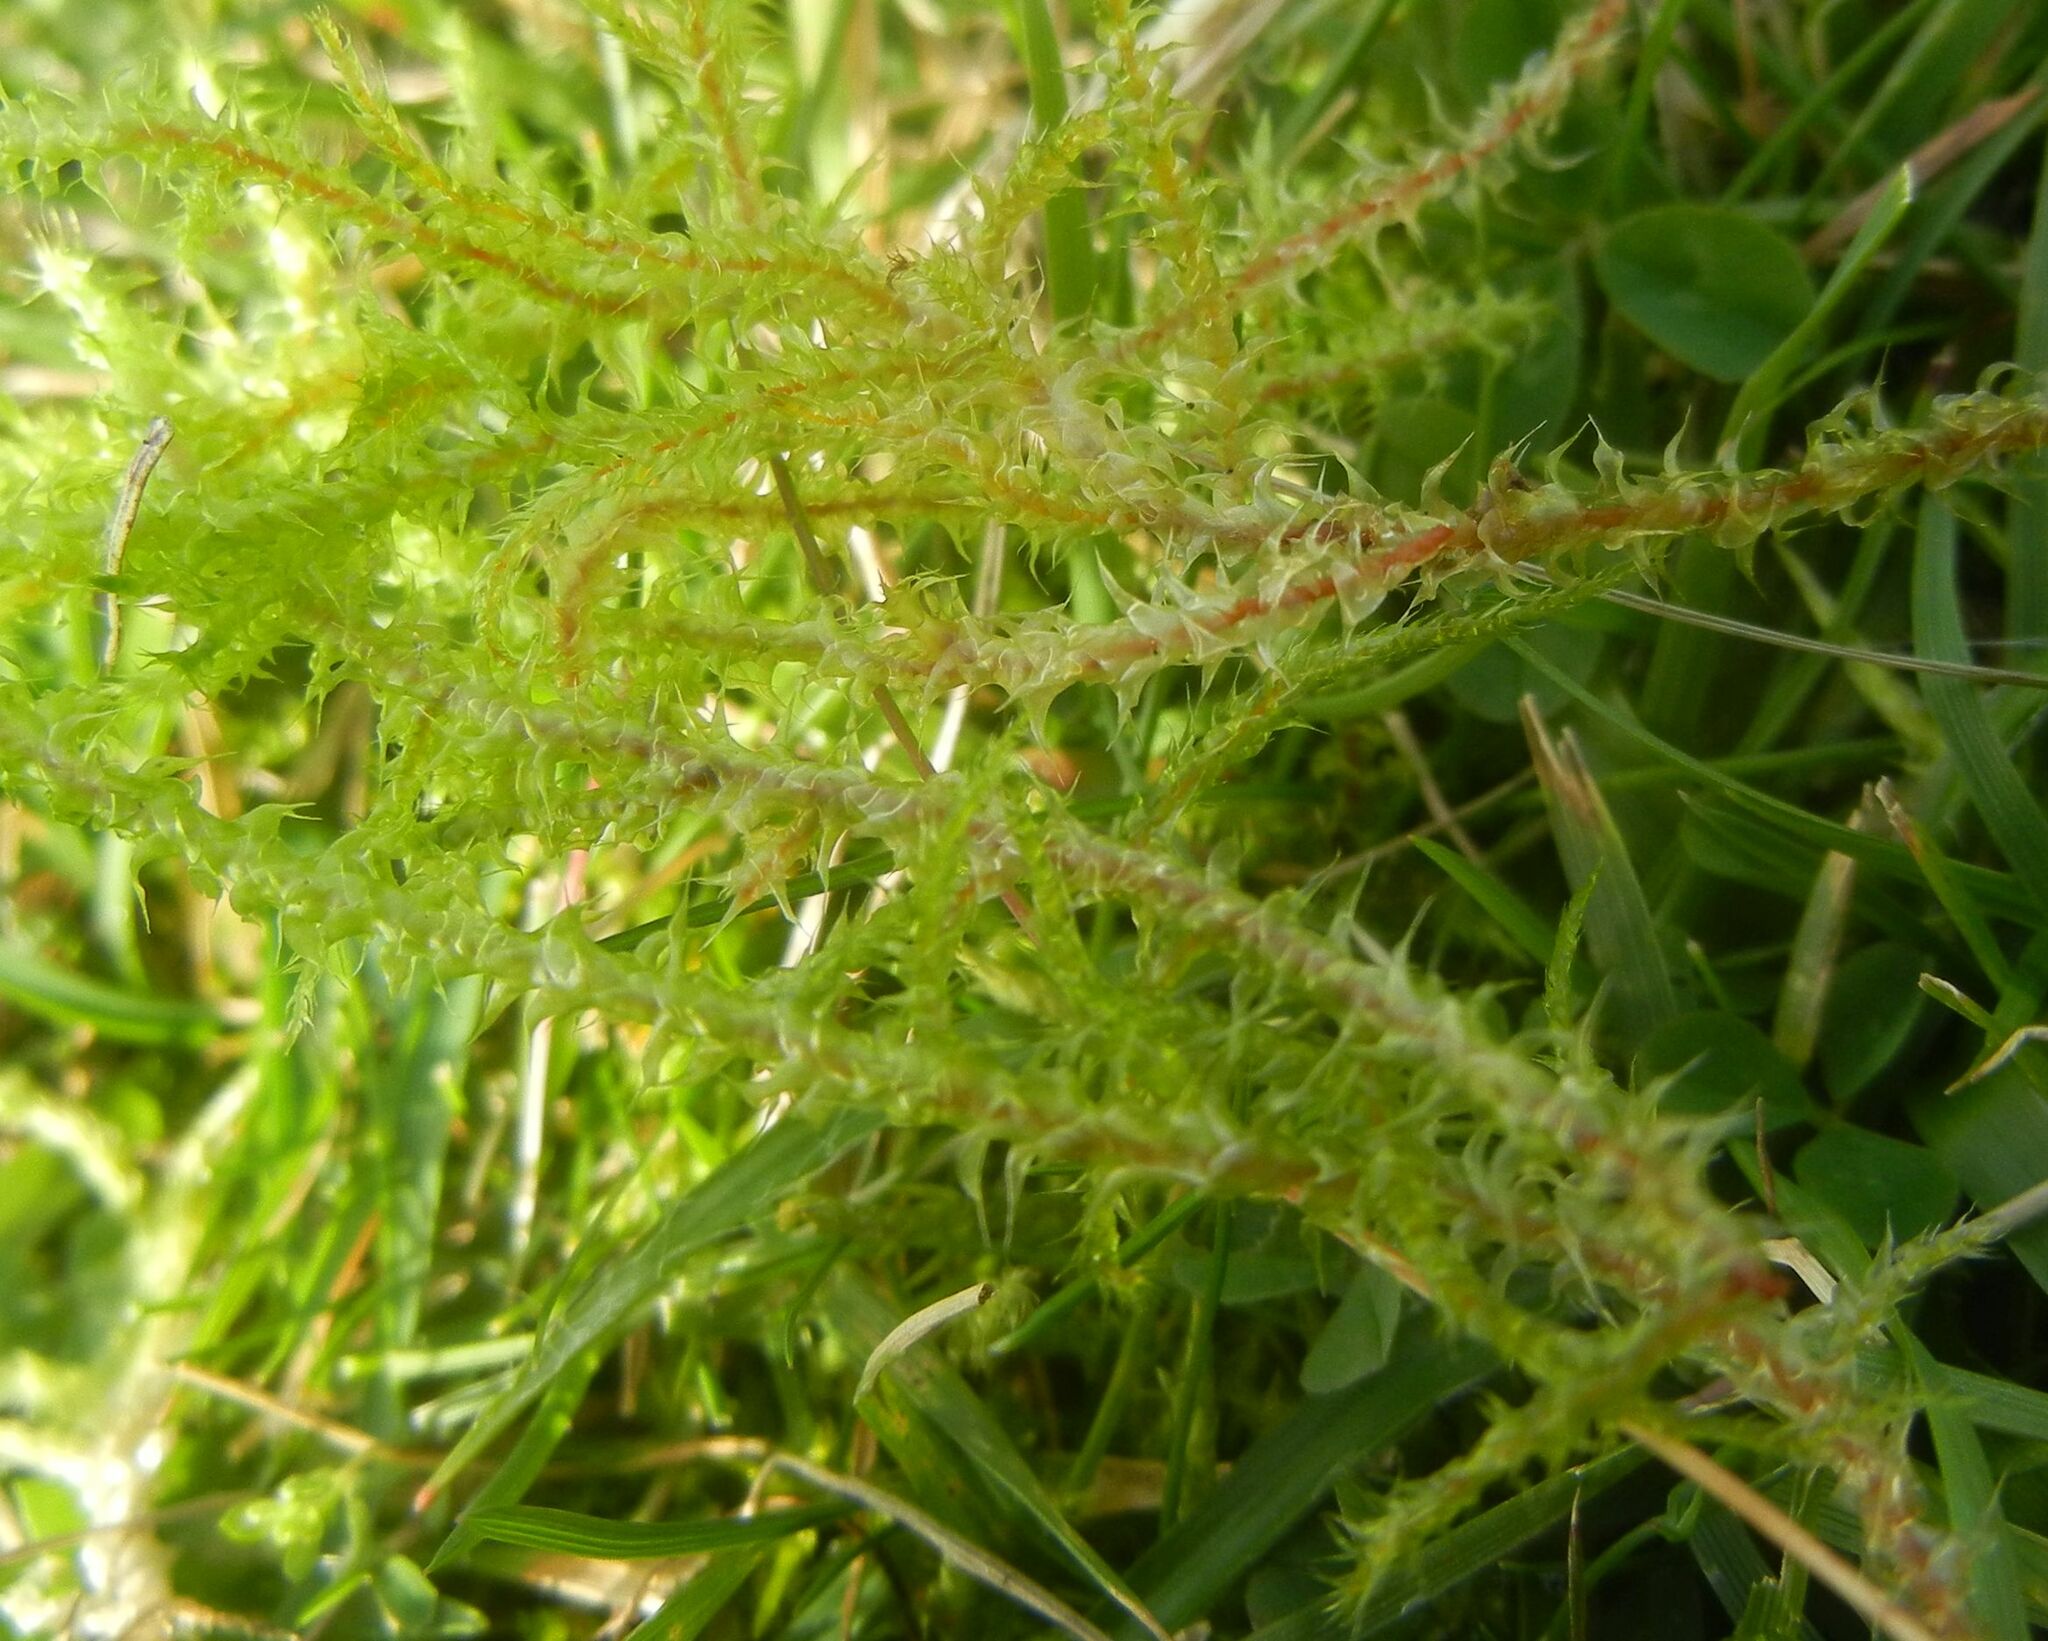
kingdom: Plantae
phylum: Bryophyta
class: Bryopsida
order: Hypnales
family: Hylocomiaceae
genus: Rhytidiadelphus
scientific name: Rhytidiadelphus squarrosus
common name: Springy turf-moss
